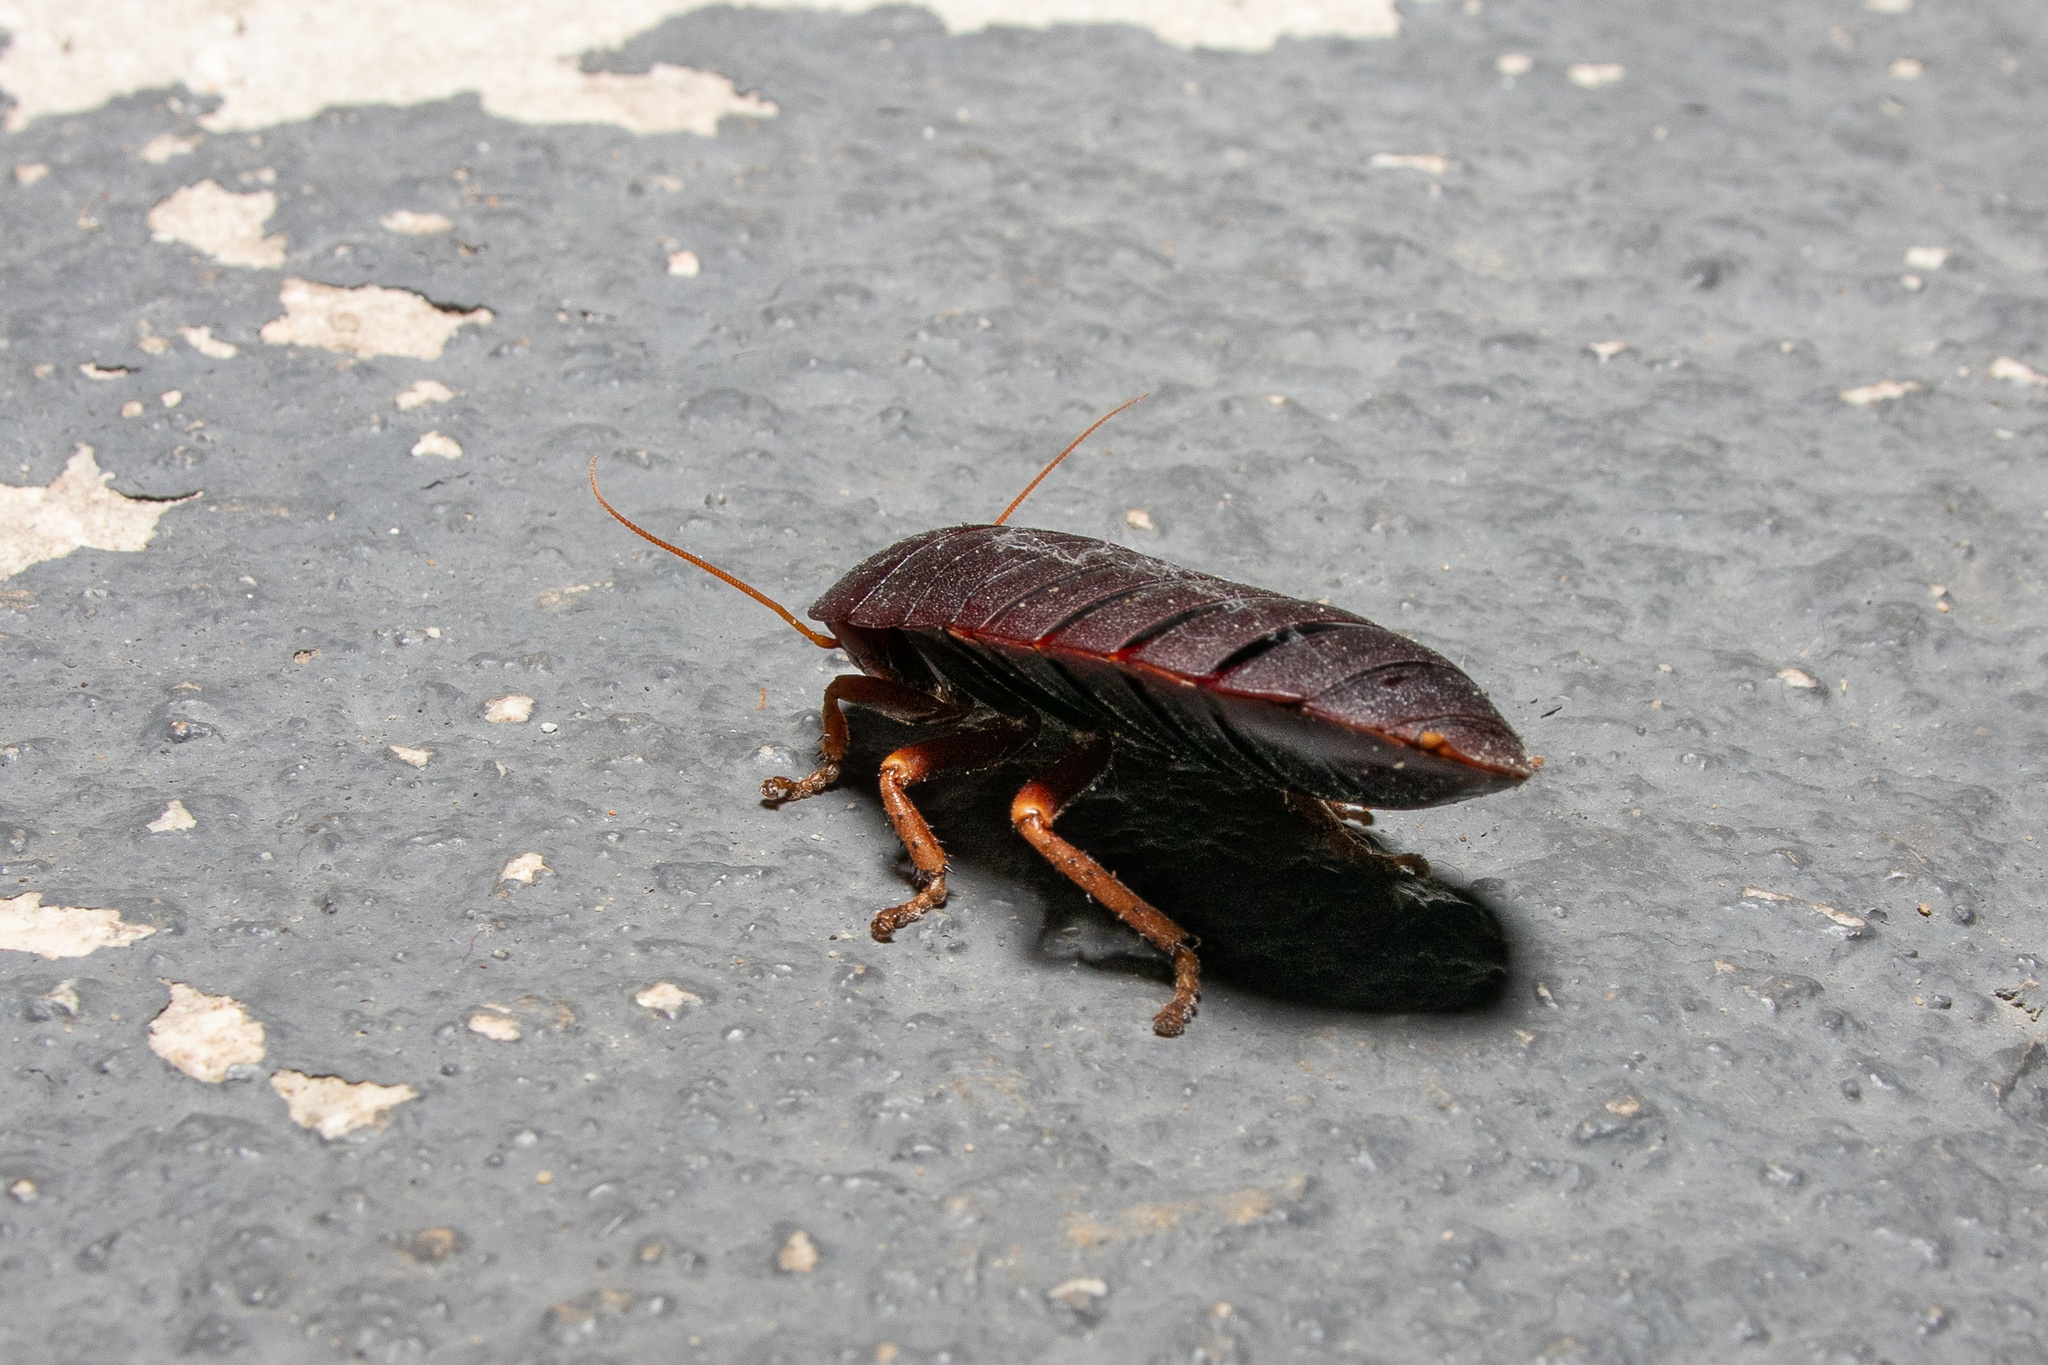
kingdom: Animalia
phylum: Arthropoda
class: Insecta
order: Blattodea
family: Blattidae
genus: Deropeltis
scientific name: Deropeltis erythrocephala
